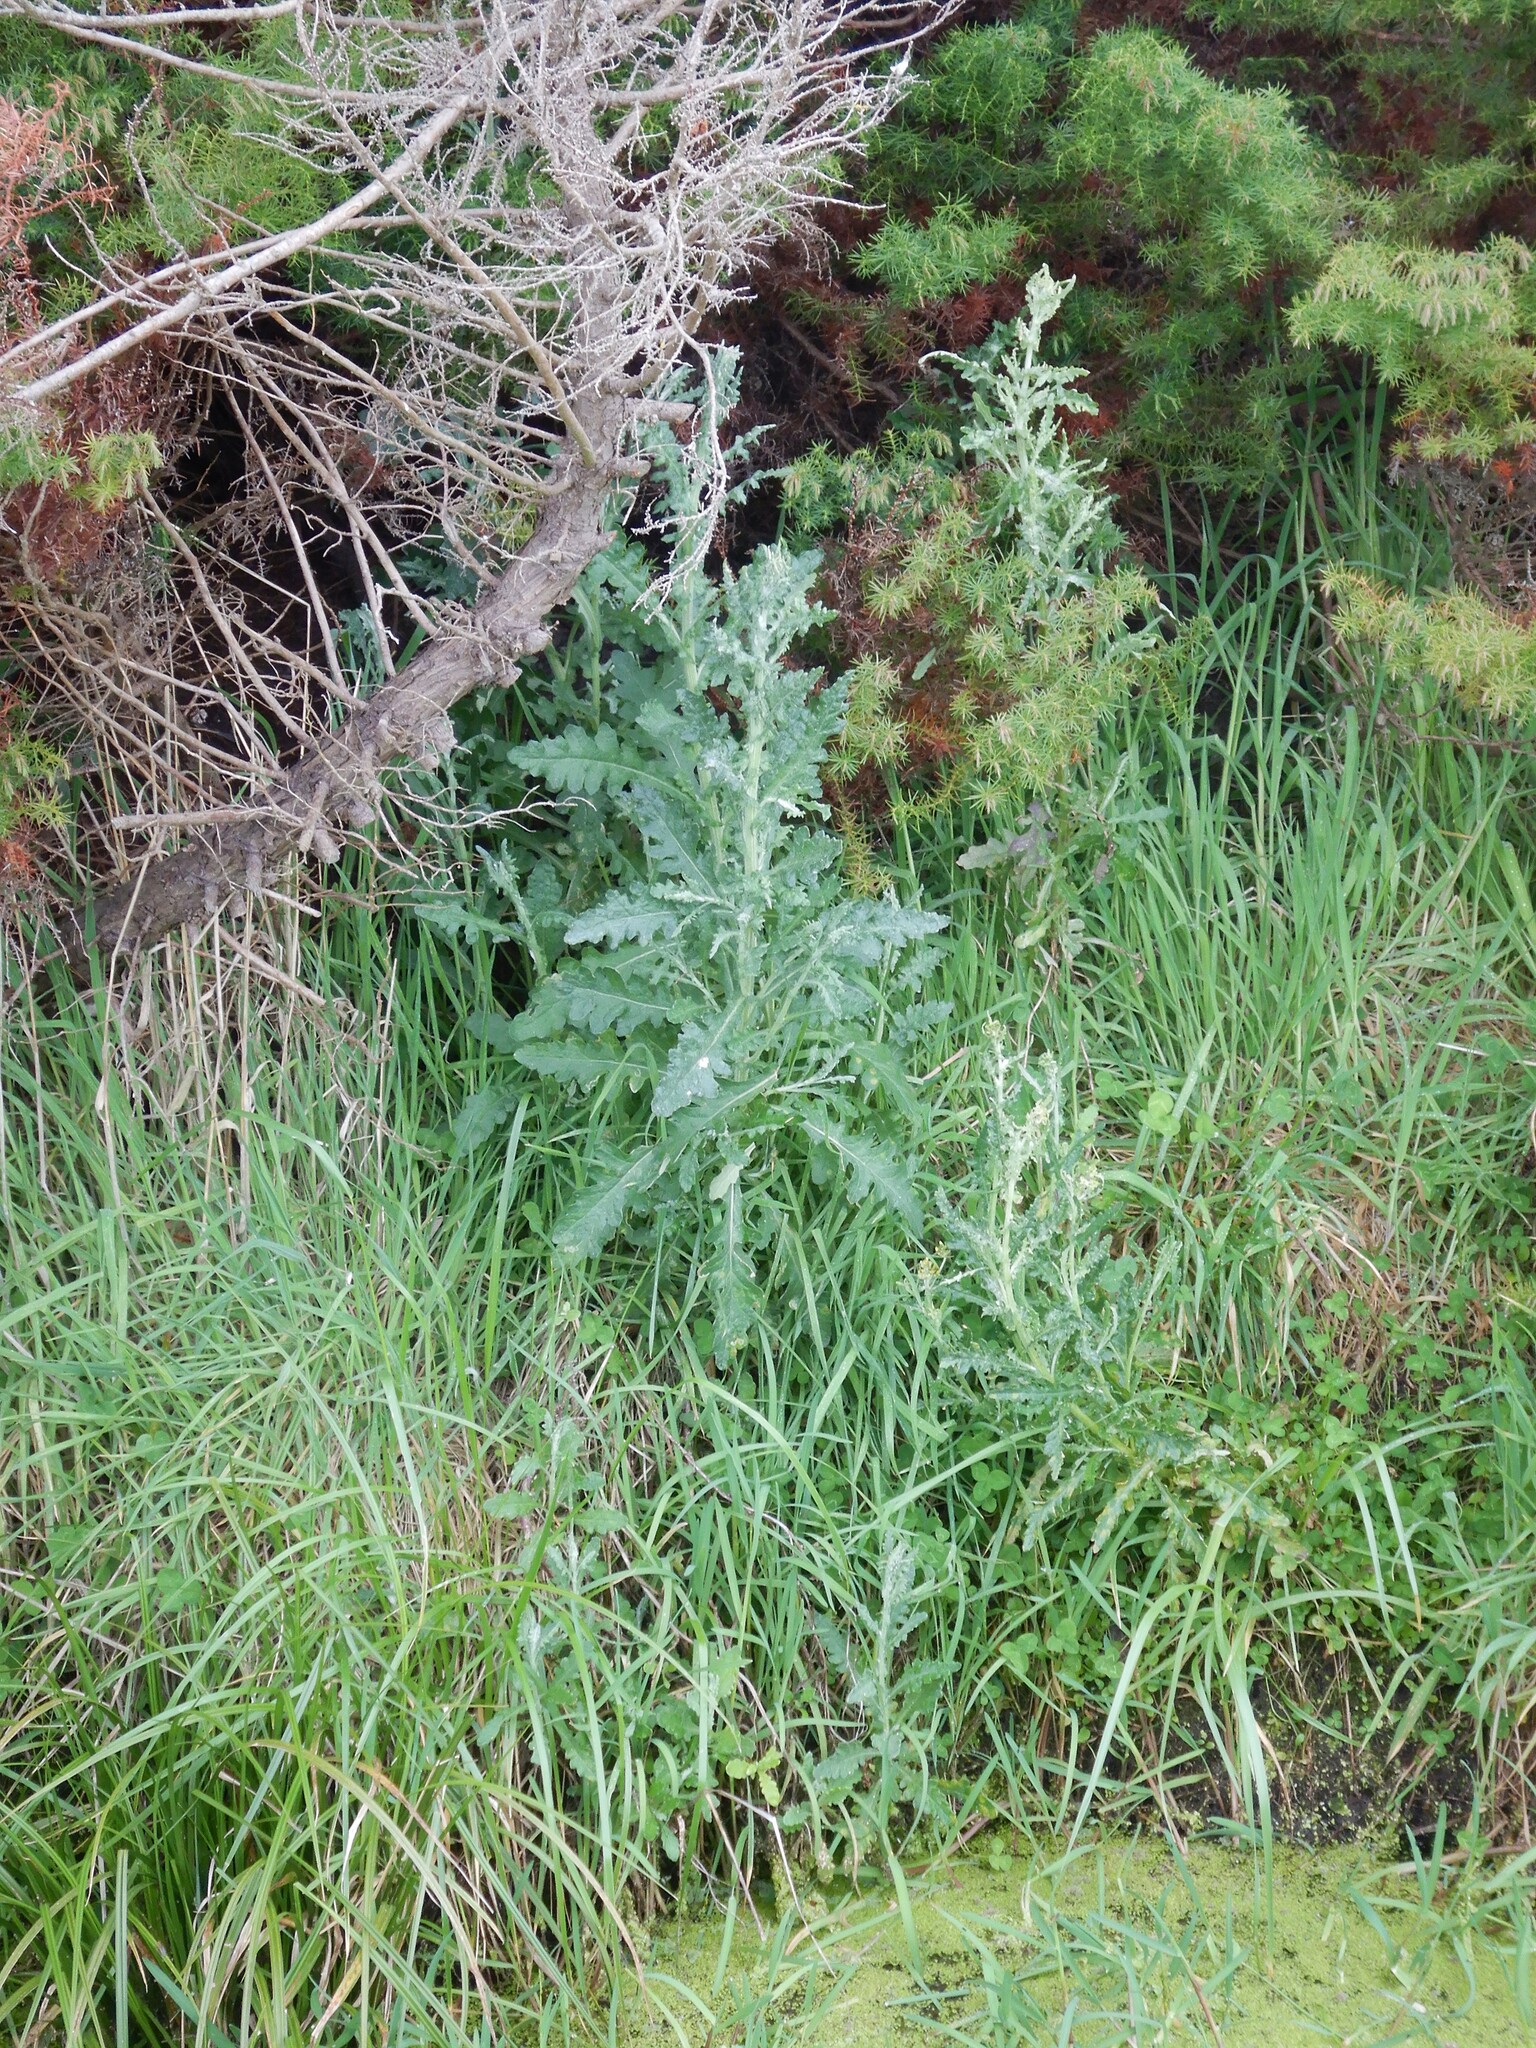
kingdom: Plantae
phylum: Tracheophyta
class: Magnoliopsida
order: Asterales
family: Asteraceae
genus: Senecio
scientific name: Senecio glomeratus
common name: Cutleaf burnweed
